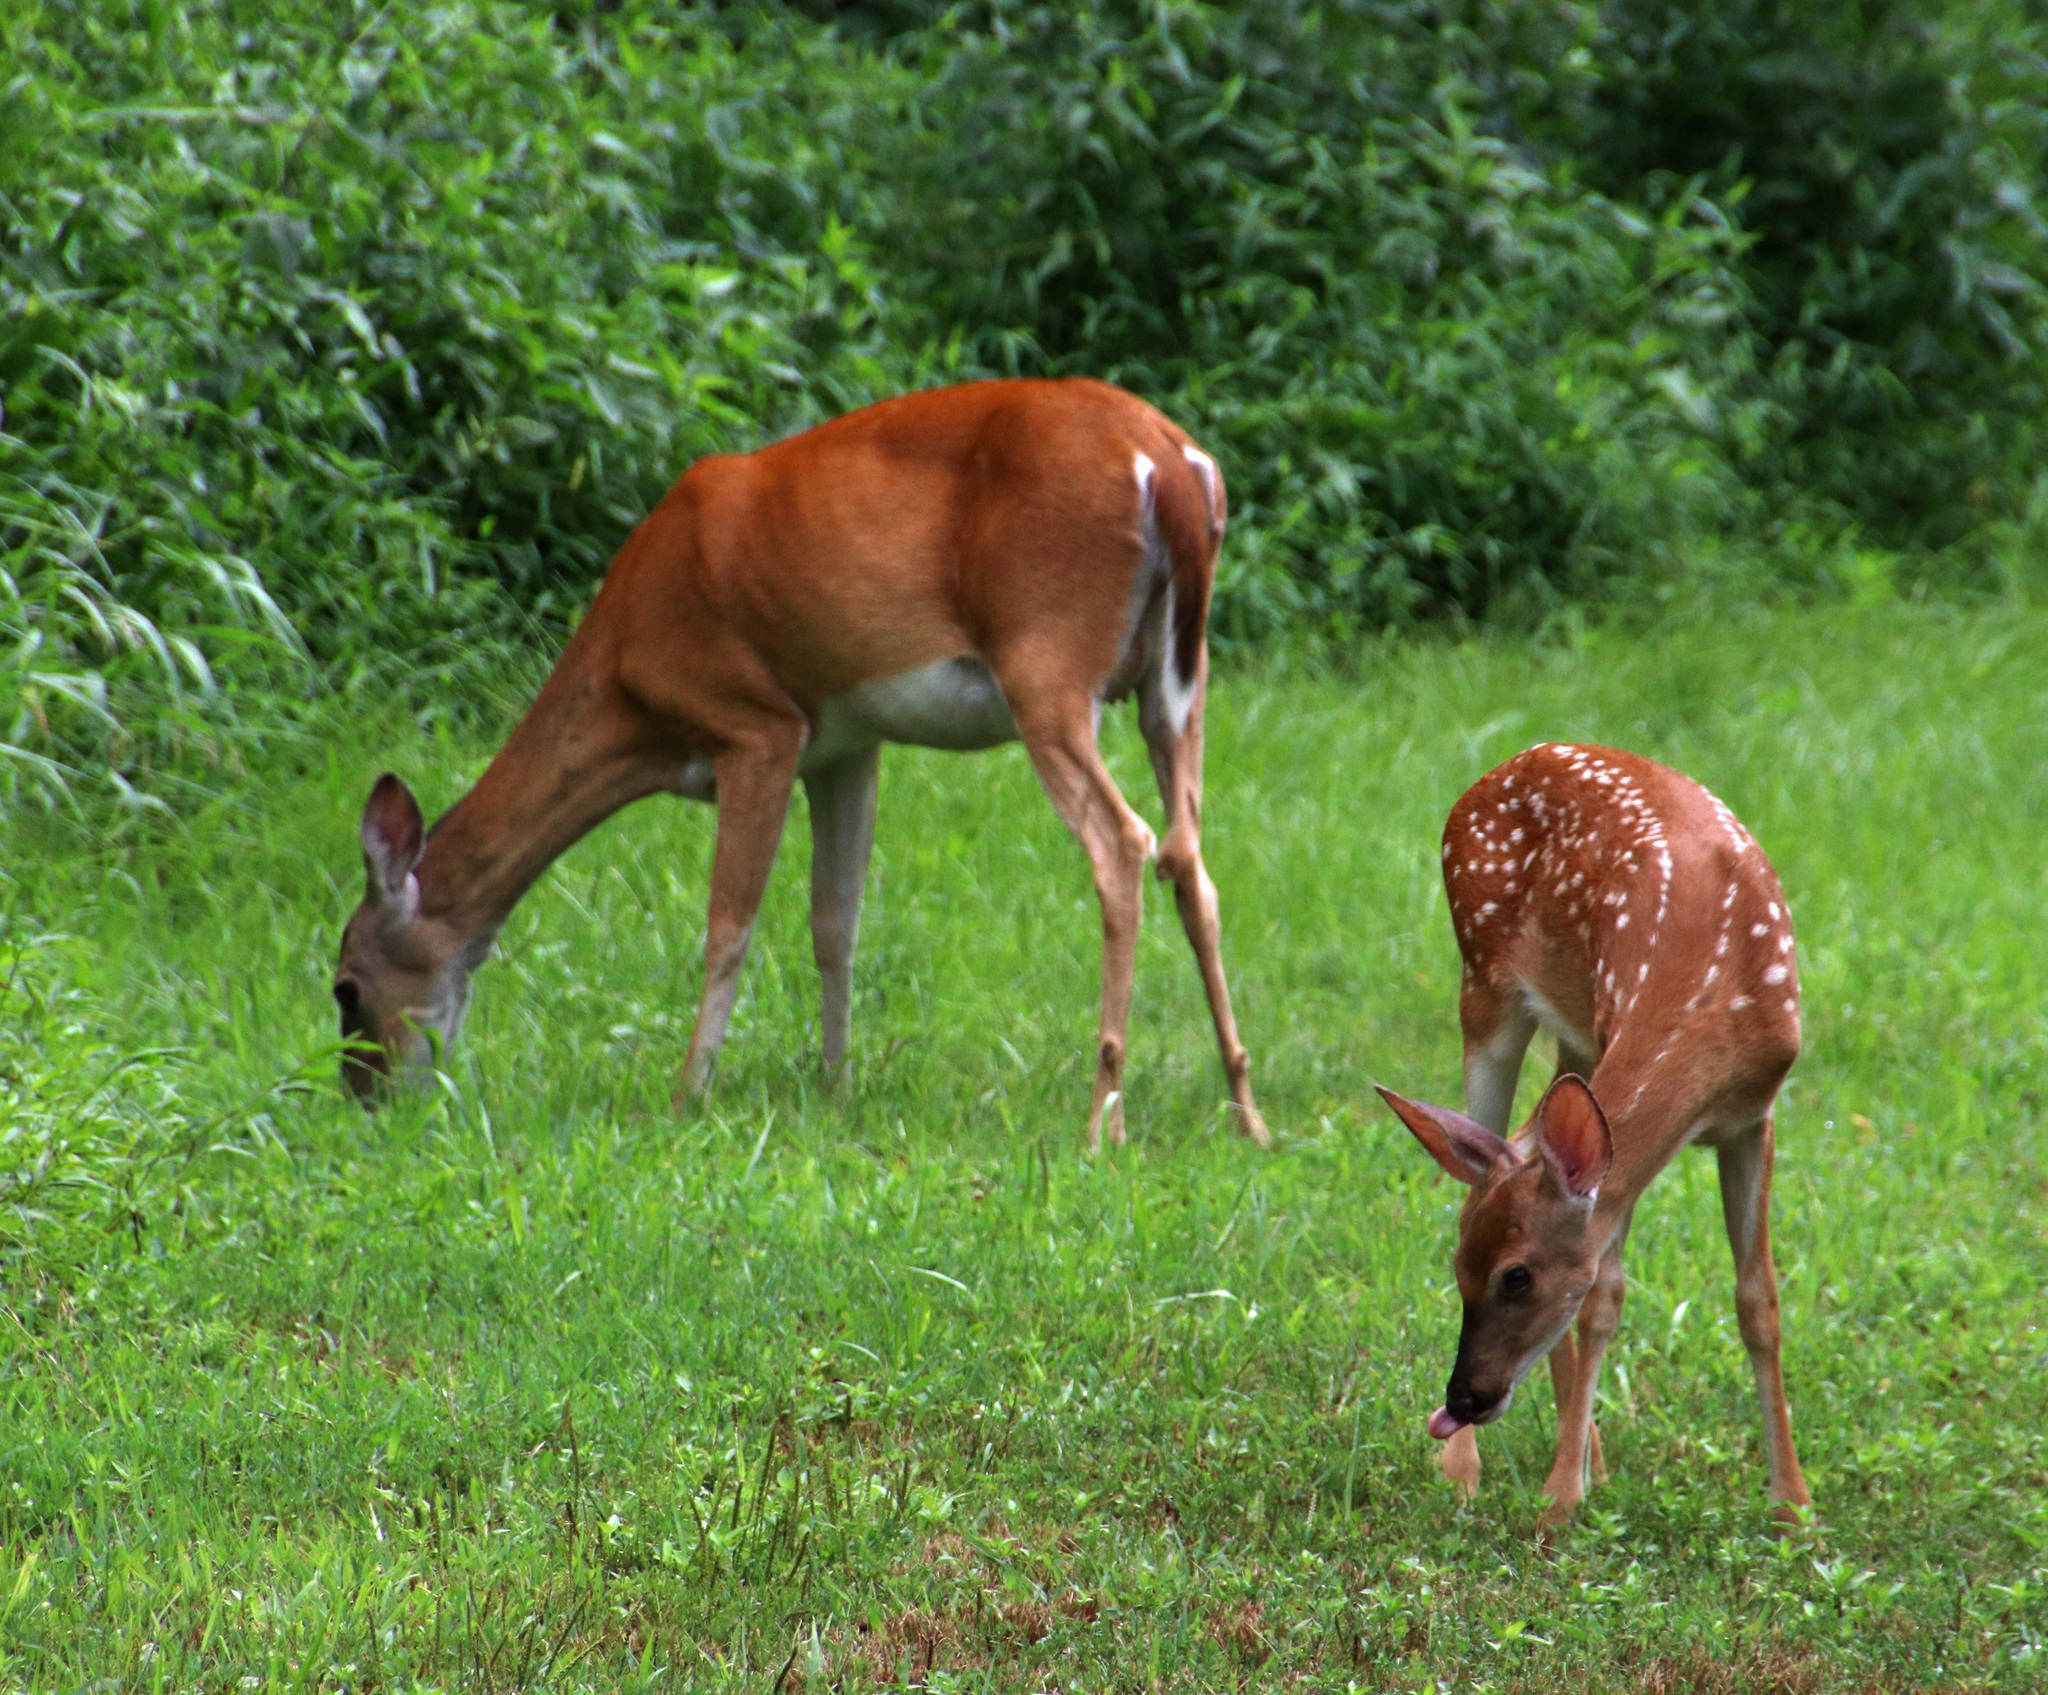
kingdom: Animalia
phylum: Chordata
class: Mammalia
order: Artiodactyla
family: Cervidae
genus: Odocoileus
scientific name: Odocoileus virginianus
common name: White-tailed deer
